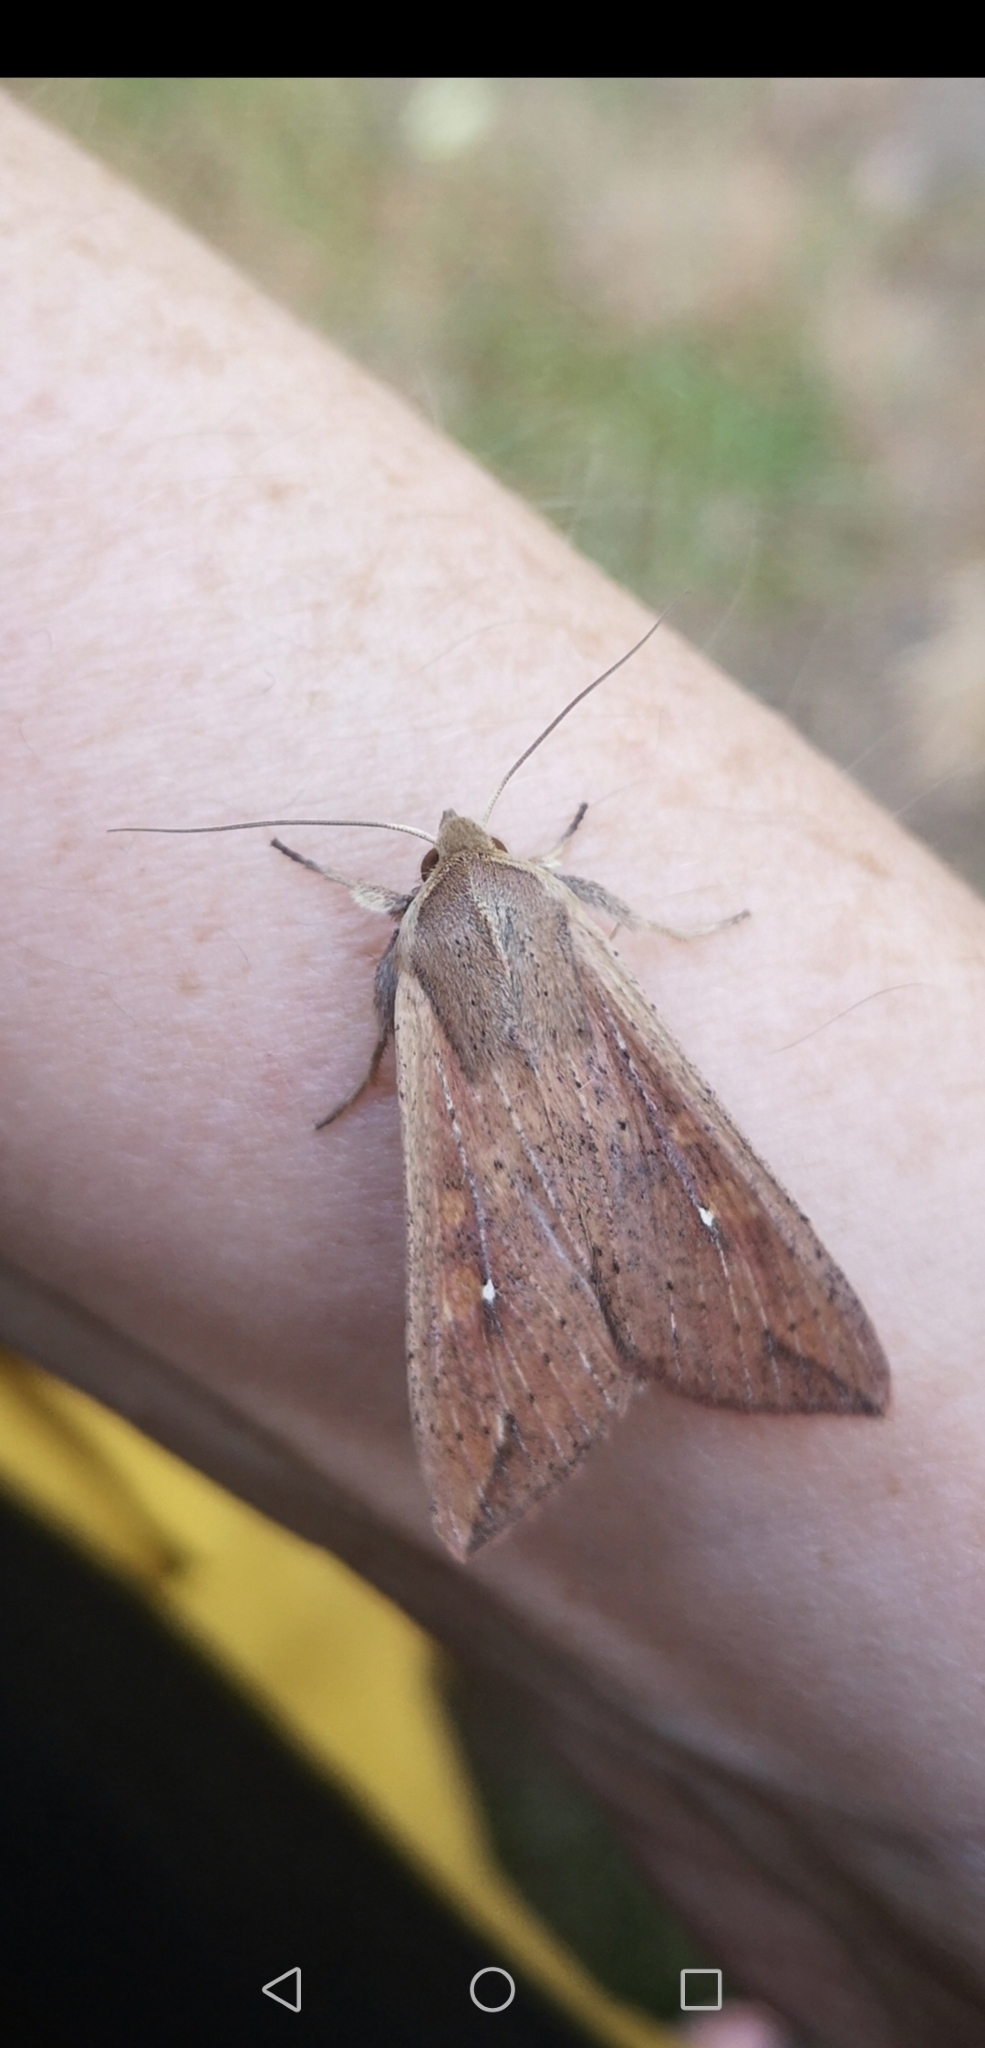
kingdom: Animalia
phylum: Arthropoda
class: Insecta
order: Lepidoptera
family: Noctuidae
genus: Mythimna
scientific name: Mythimna unipuncta
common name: White-speck
